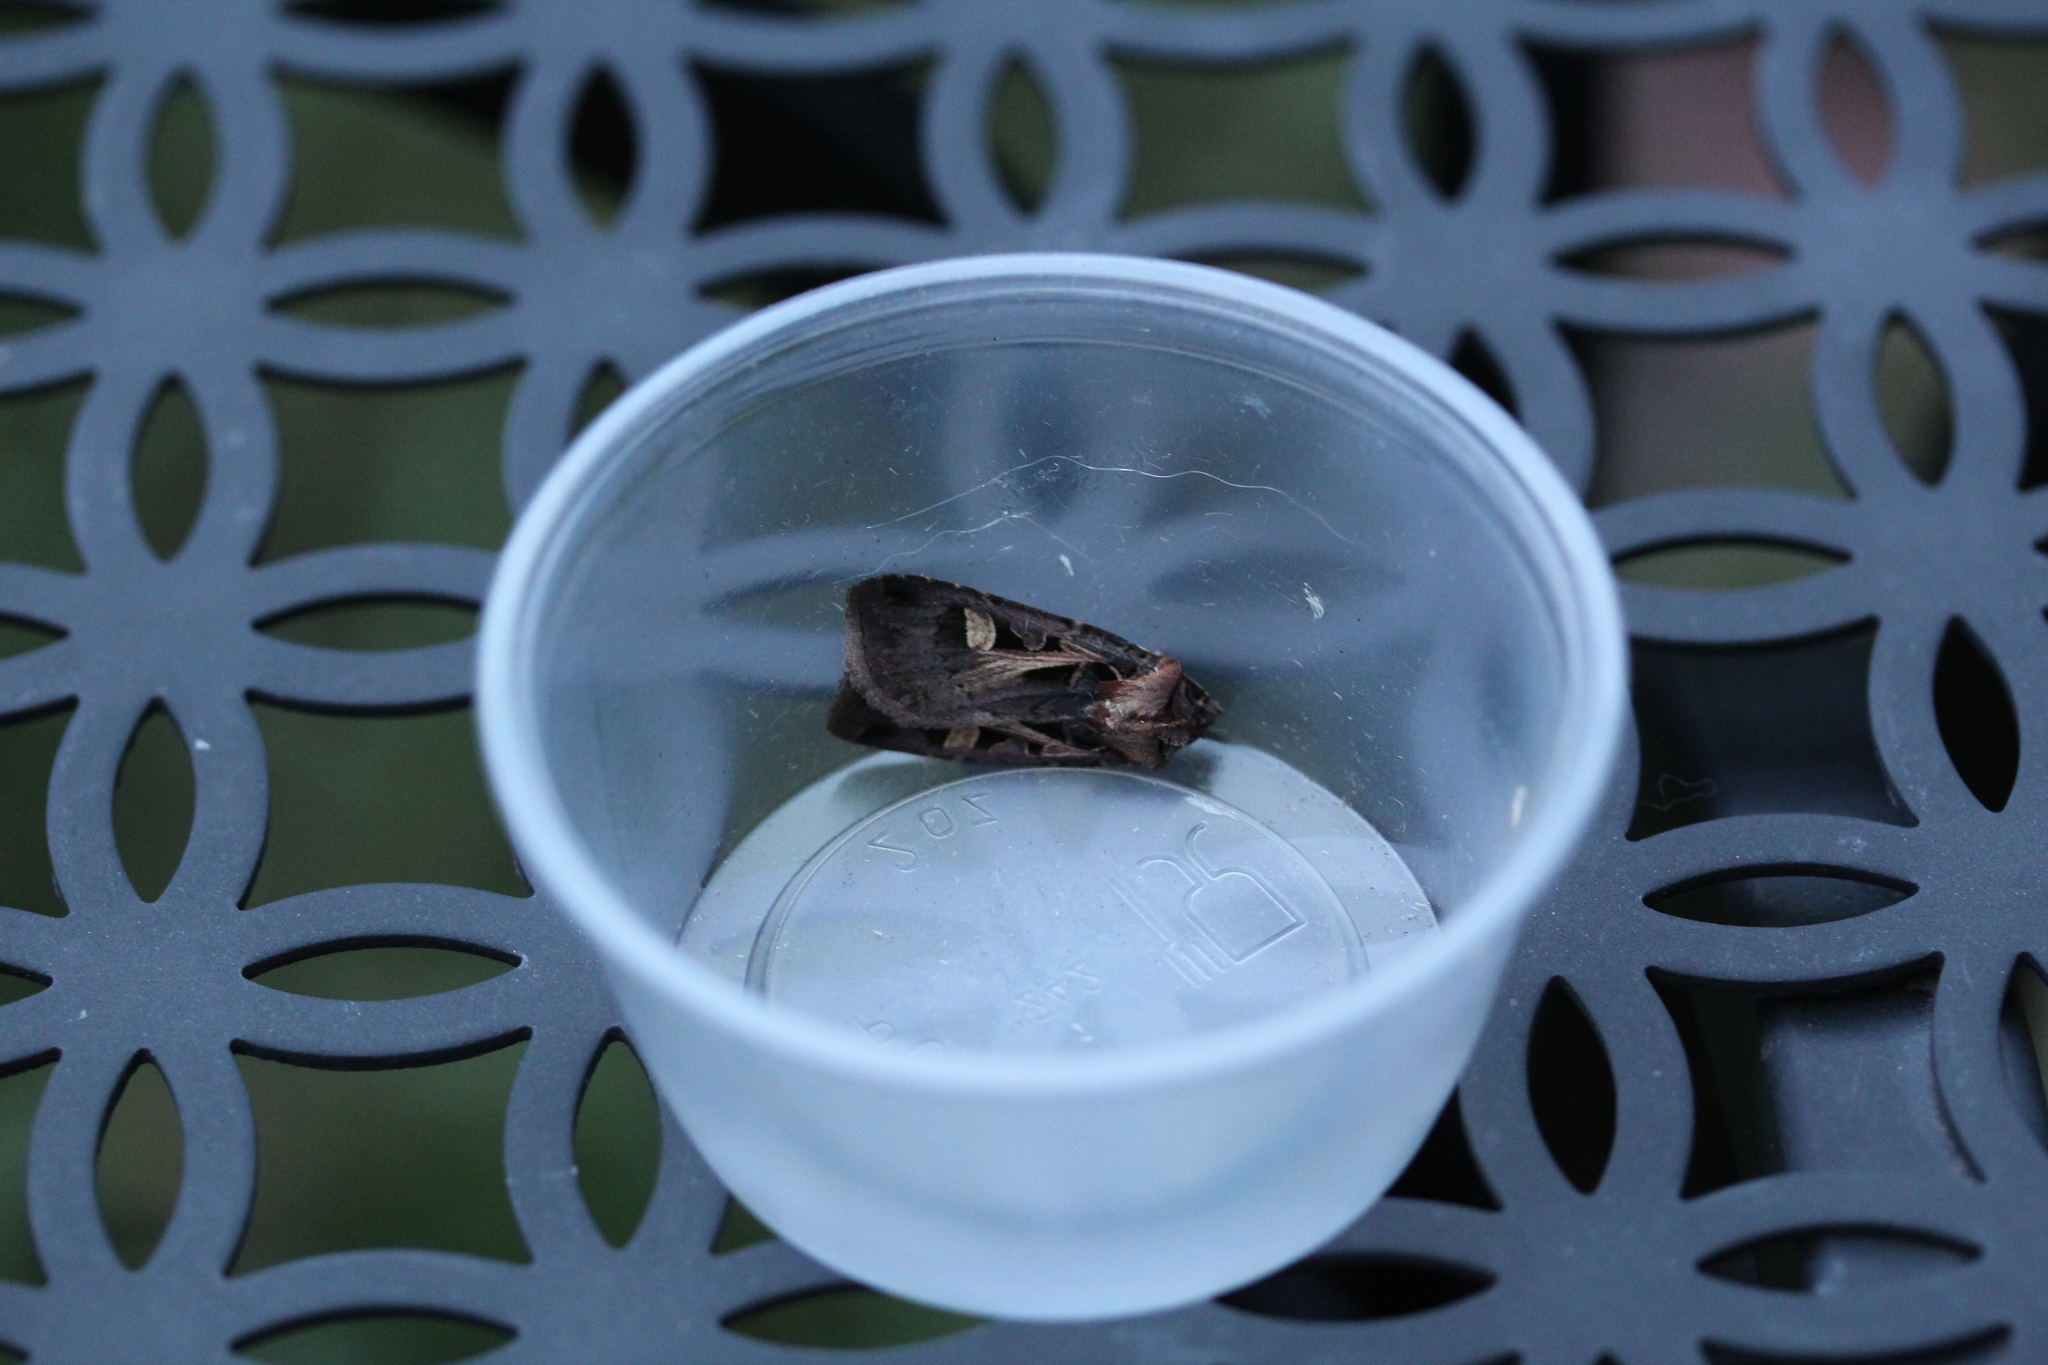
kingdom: Animalia
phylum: Arthropoda
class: Insecta
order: Lepidoptera
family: Noctuidae
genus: Feltia
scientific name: Feltia herilis
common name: Master's dart
